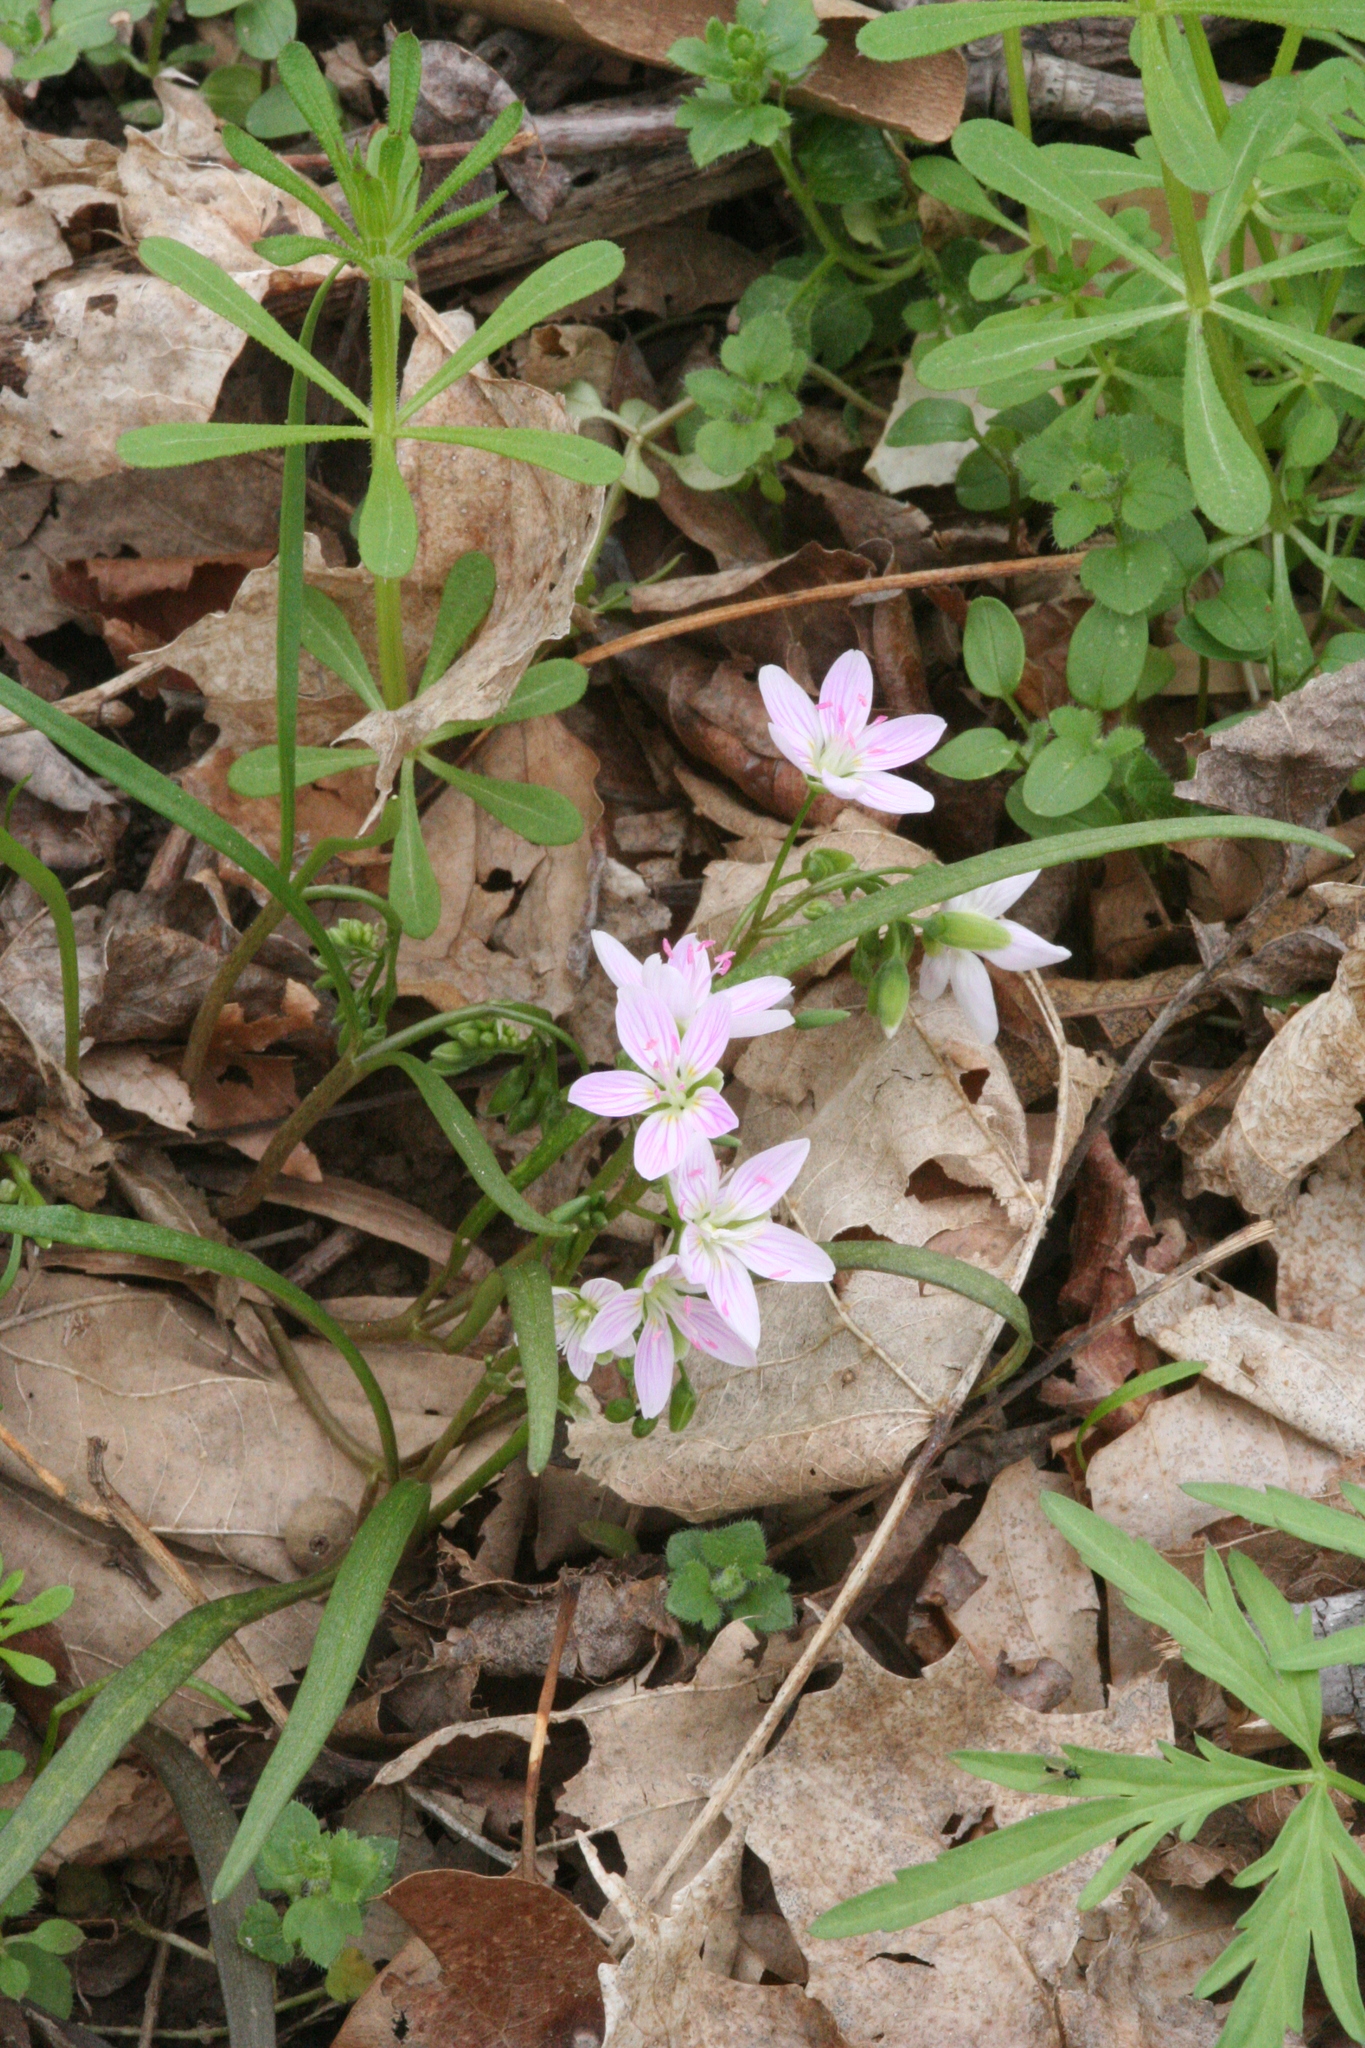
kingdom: Plantae
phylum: Tracheophyta
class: Magnoliopsida
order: Caryophyllales
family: Montiaceae
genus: Claytonia
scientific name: Claytonia virginica
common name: Virginia springbeauty
